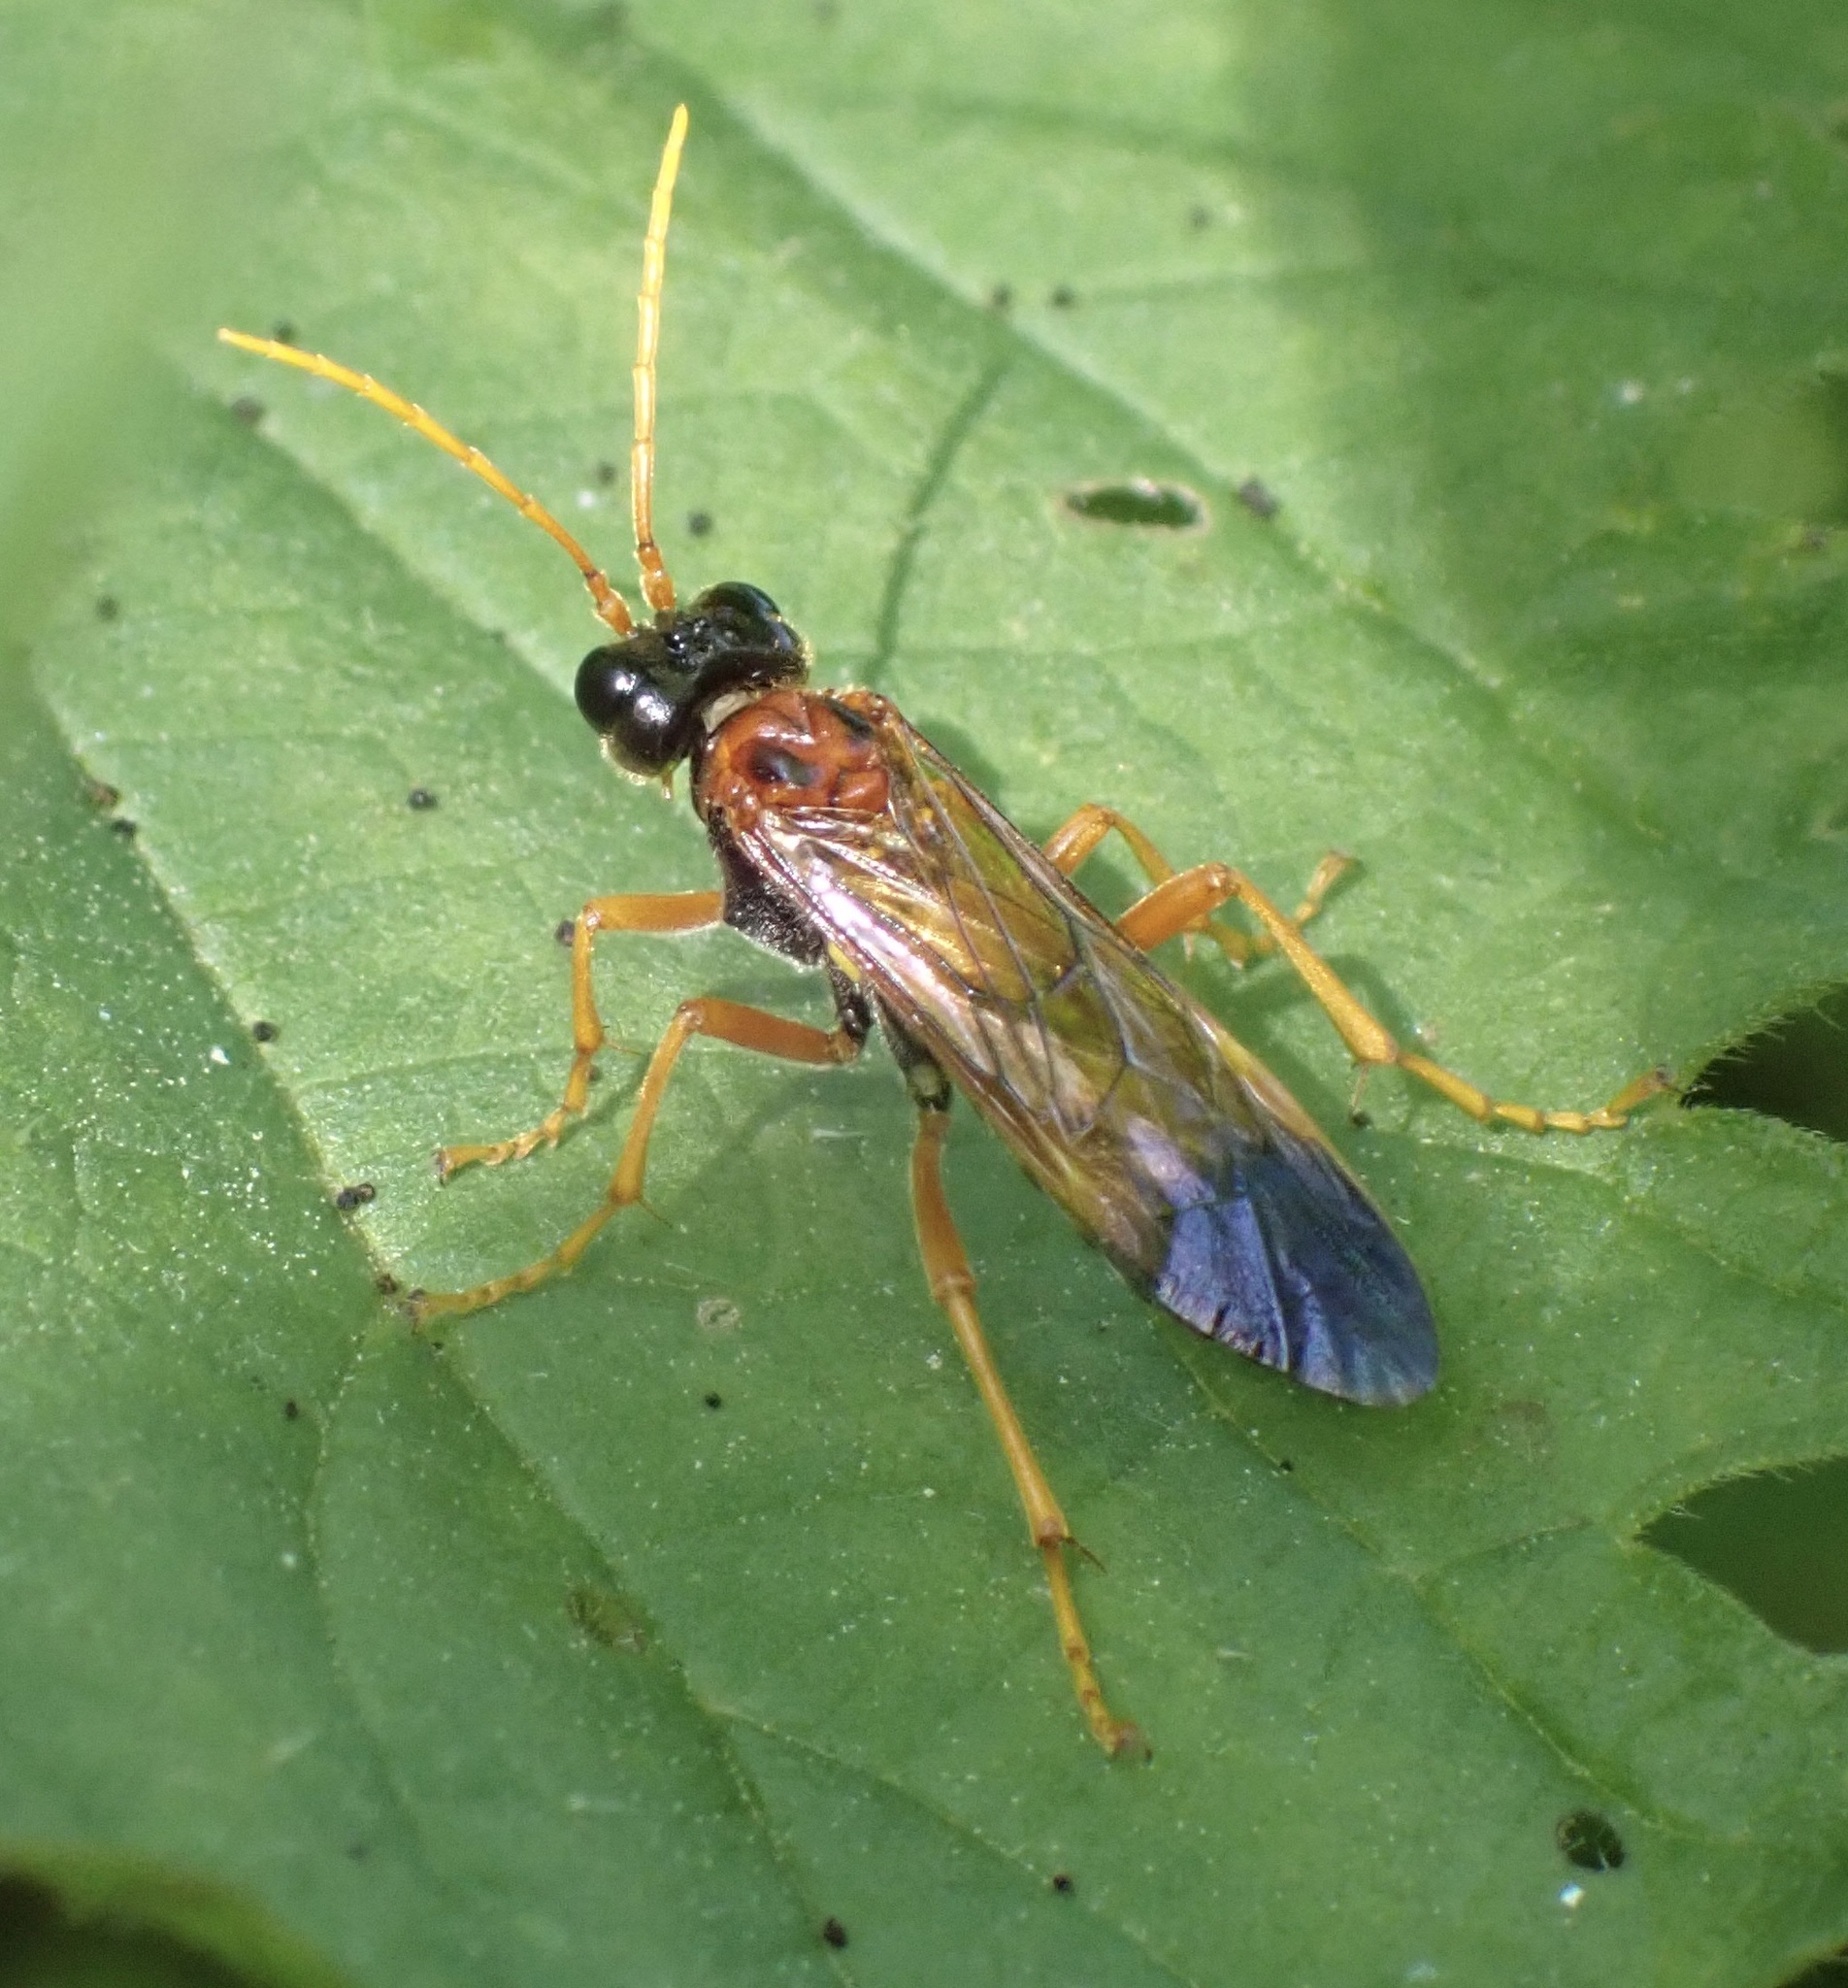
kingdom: Animalia
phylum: Arthropoda
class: Insecta
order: Hymenoptera
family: Tenthredinidae
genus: Tenthredo
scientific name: Tenthredo campestris
